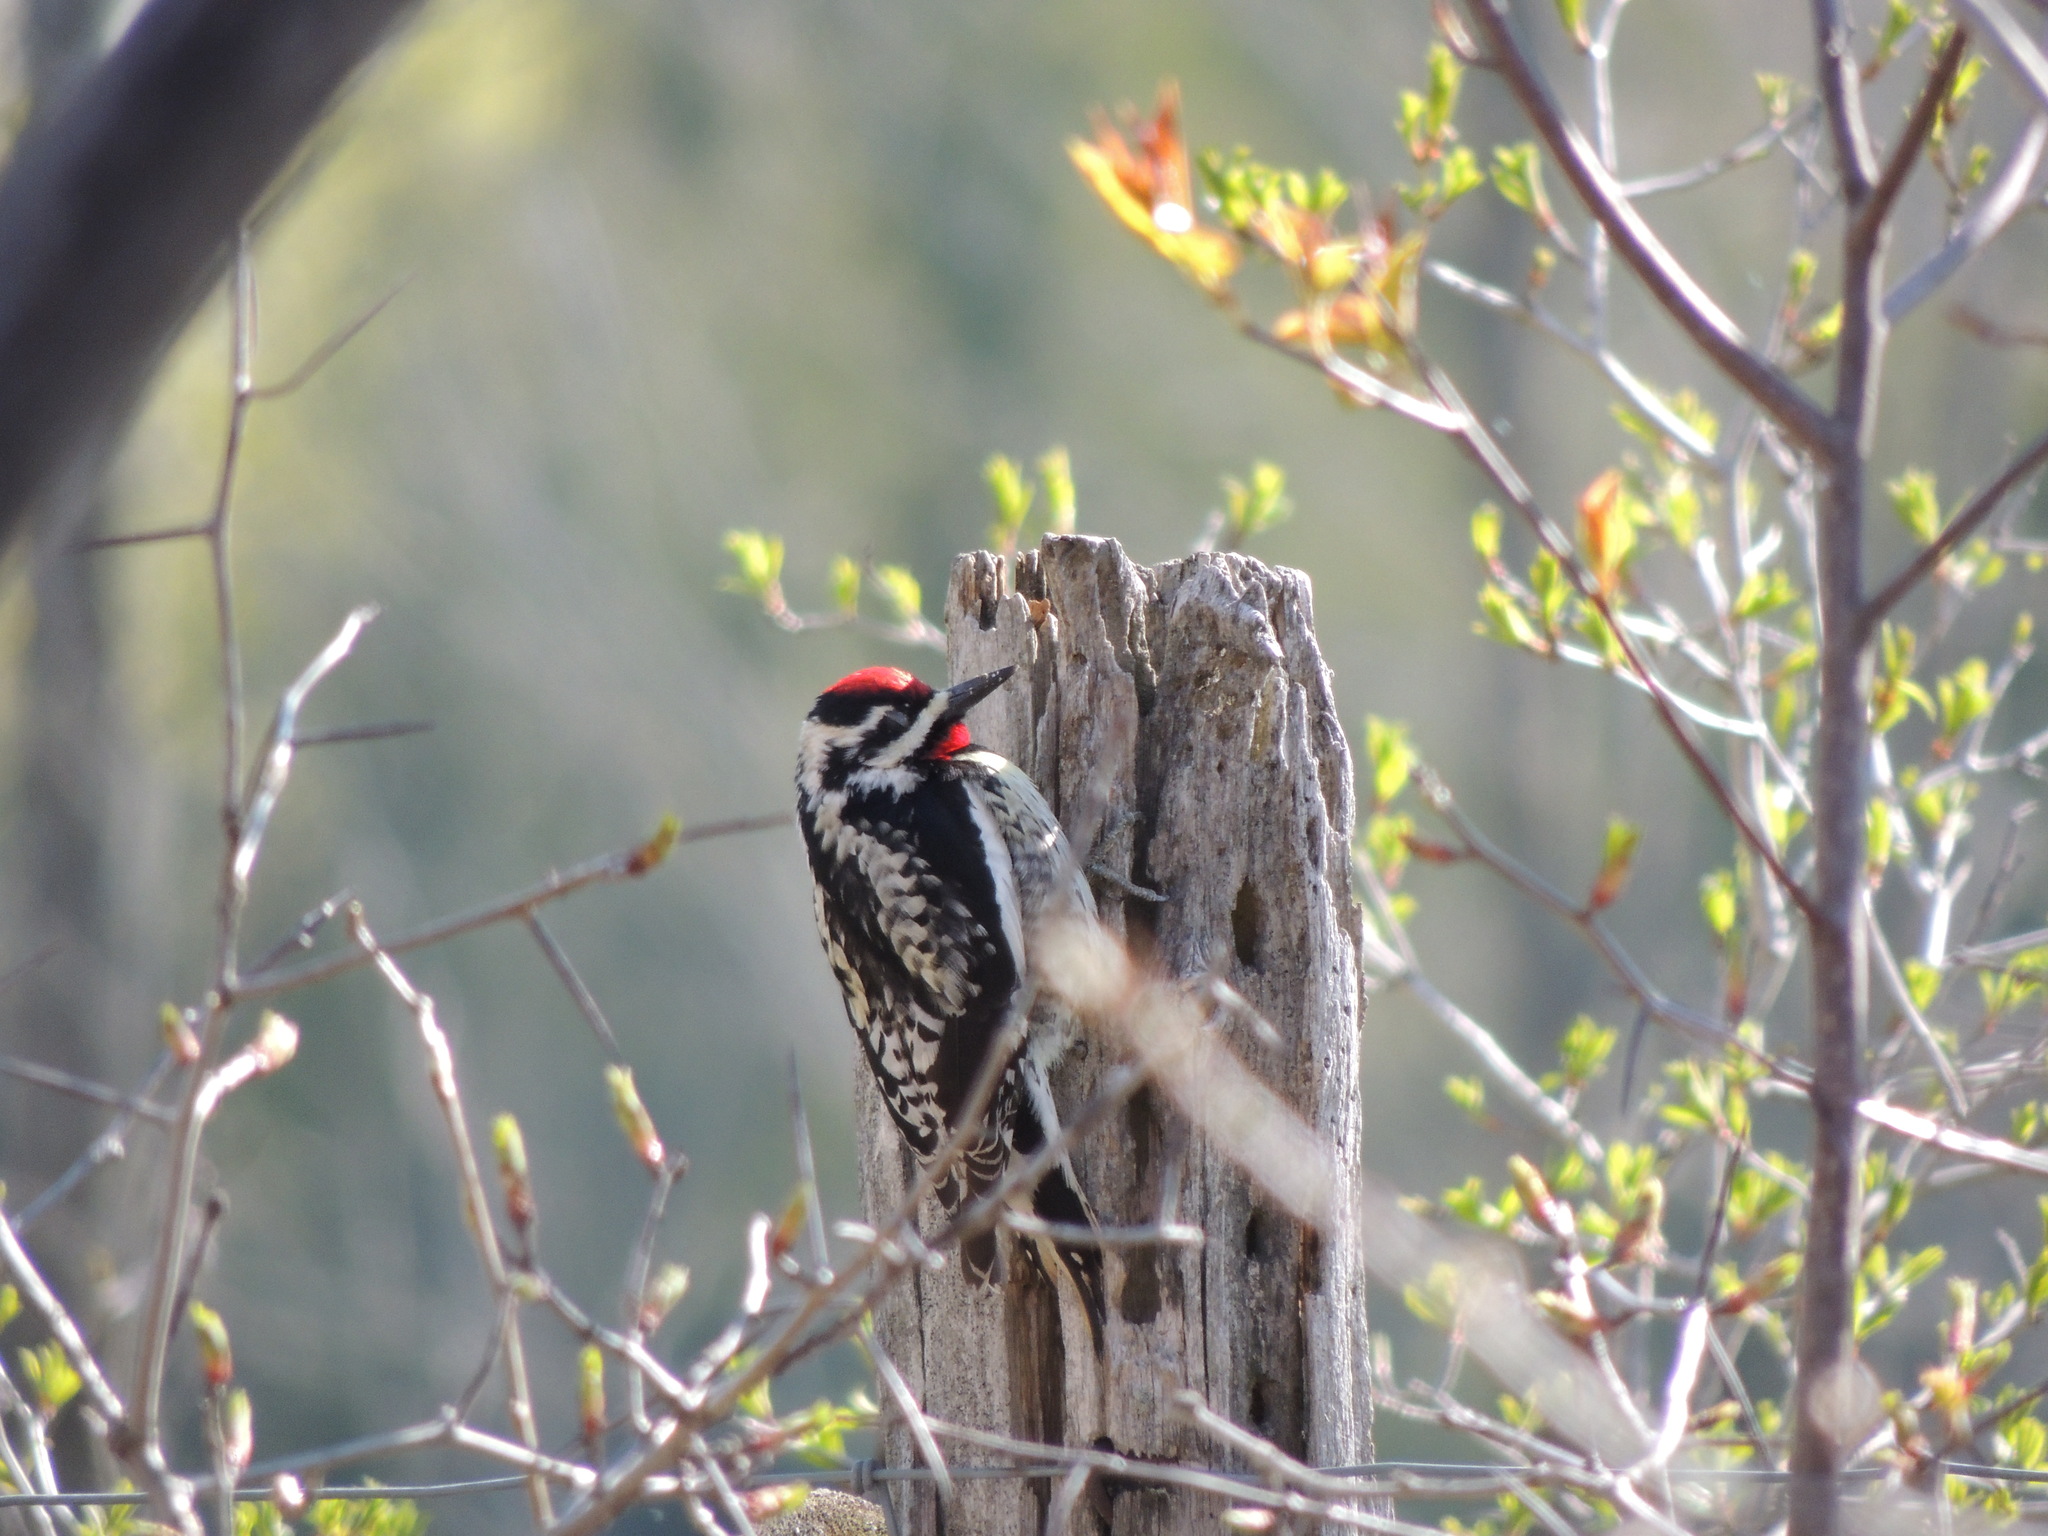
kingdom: Animalia
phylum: Chordata
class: Aves
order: Piciformes
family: Picidae
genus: Sphyrapicus
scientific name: Sphyrapicus varius
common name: Yellow-bellied sapsucker
